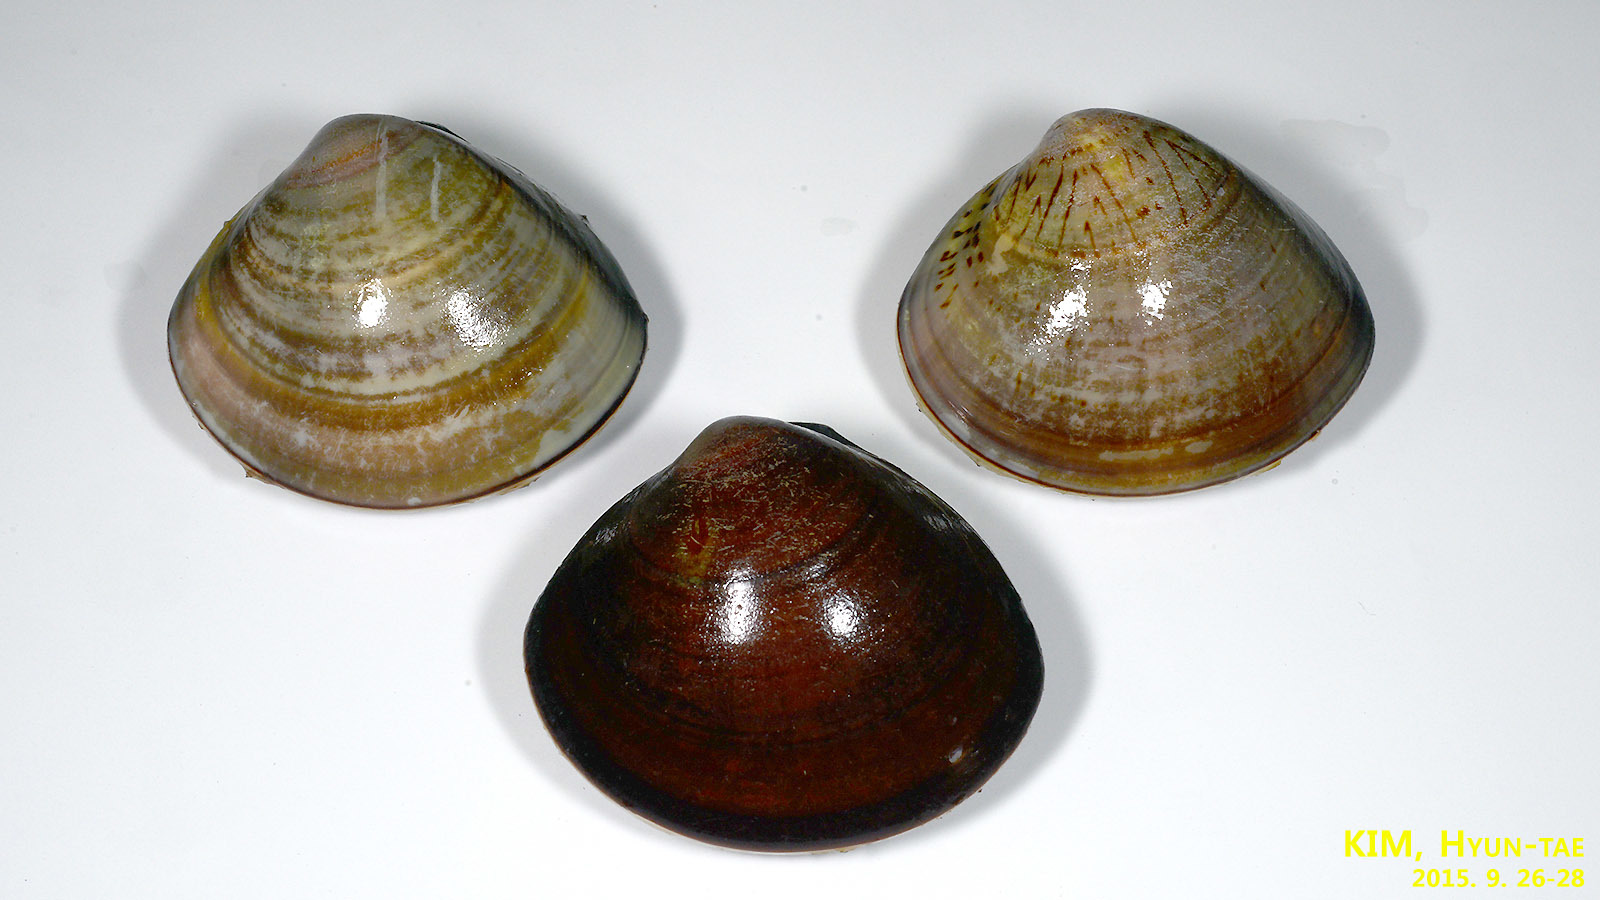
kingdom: Animalia
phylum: Mollusca
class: Bivalvia
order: Venerida
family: Veneridae
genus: Meretrix
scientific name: Meretrix lusoria
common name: Asian hard clam
